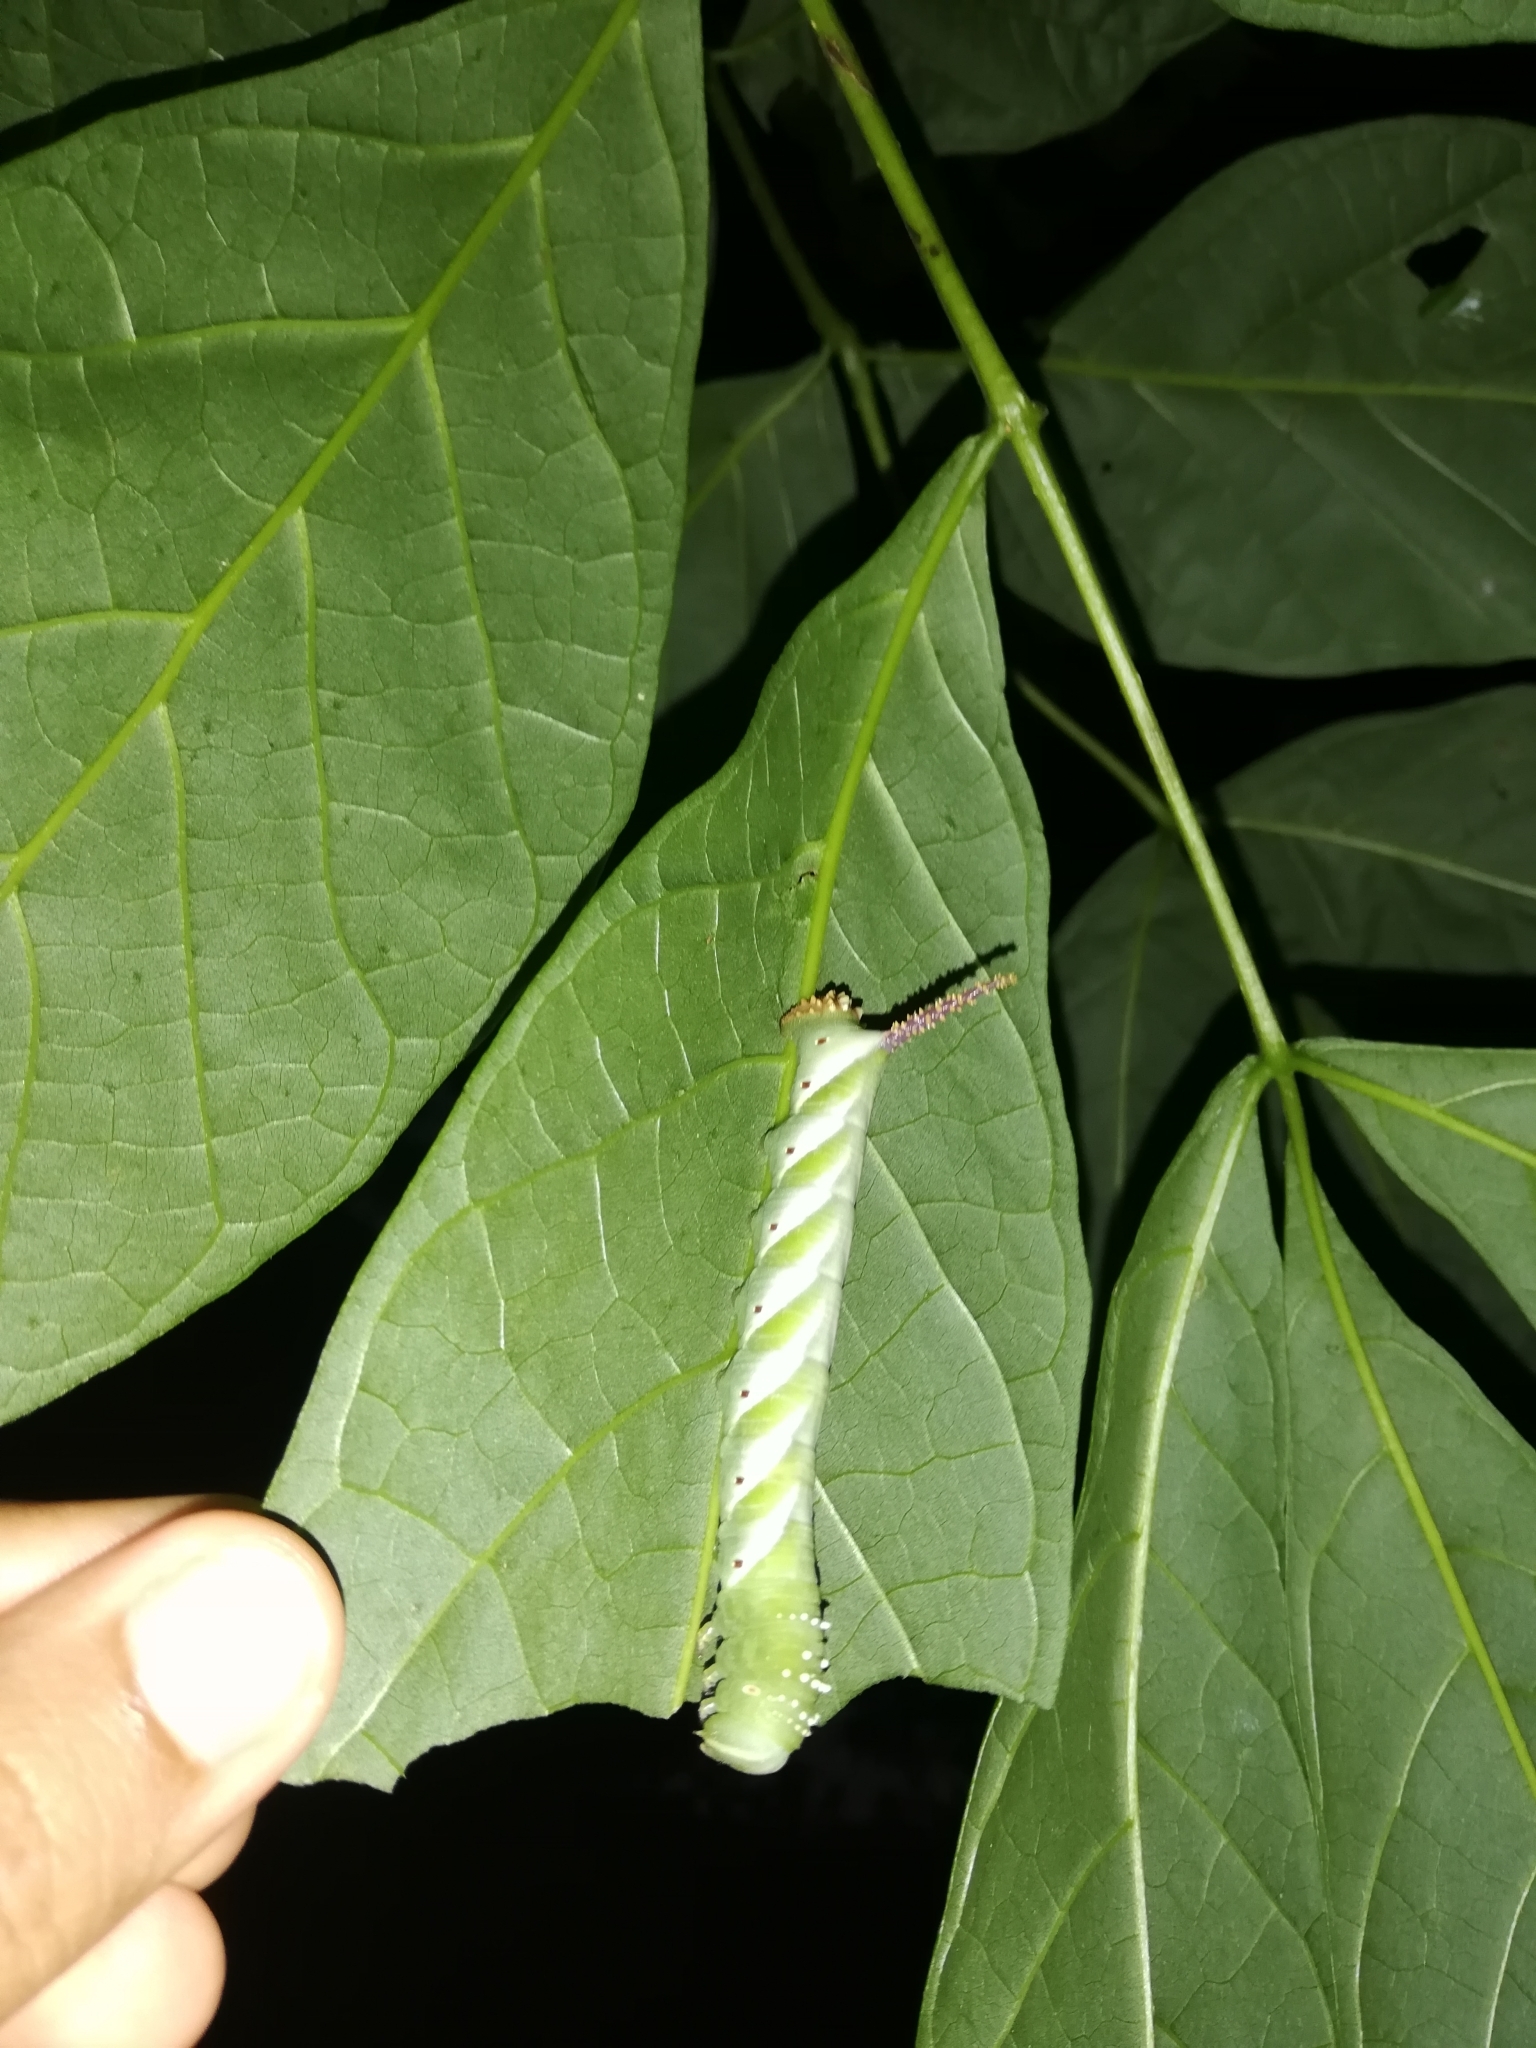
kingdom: Animalia
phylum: Arthropoda
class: Insecta
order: Lepidoptera
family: Sphingidae
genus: Psilogramma
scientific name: Psilogramma menephron
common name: Gray hawk moth
